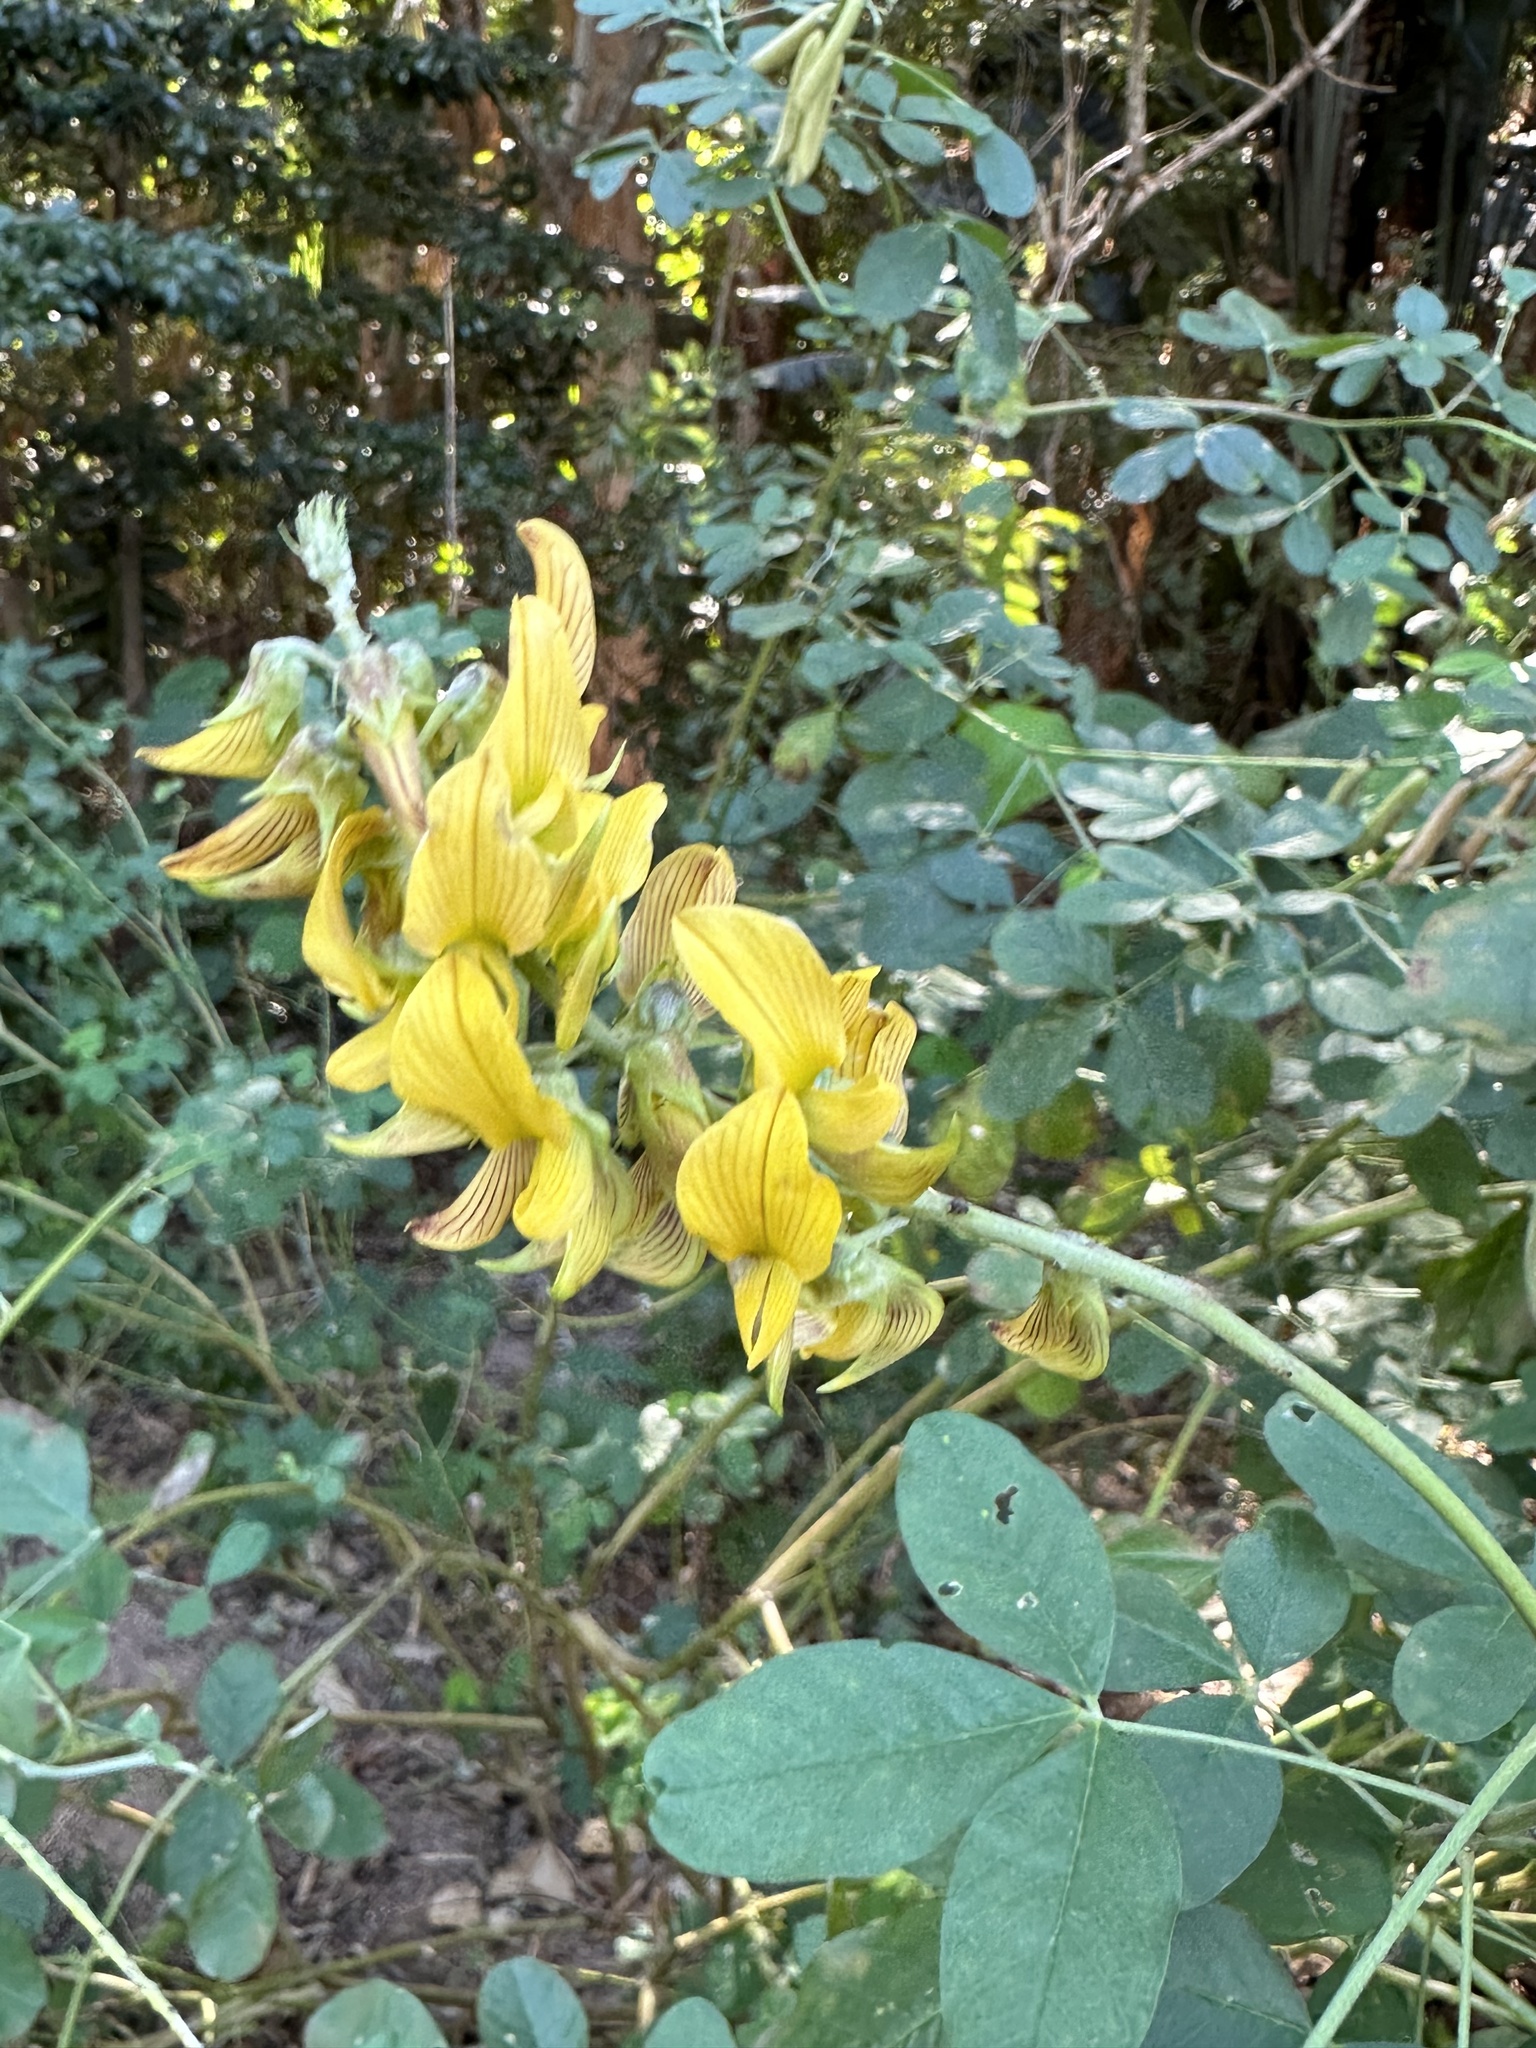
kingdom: Plantae
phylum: Tracheophyta
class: Magnoliopsida
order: Fabales
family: Fabaceae
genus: Crotalaria
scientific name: Crotalaria pallida
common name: Smooth rattlebox
